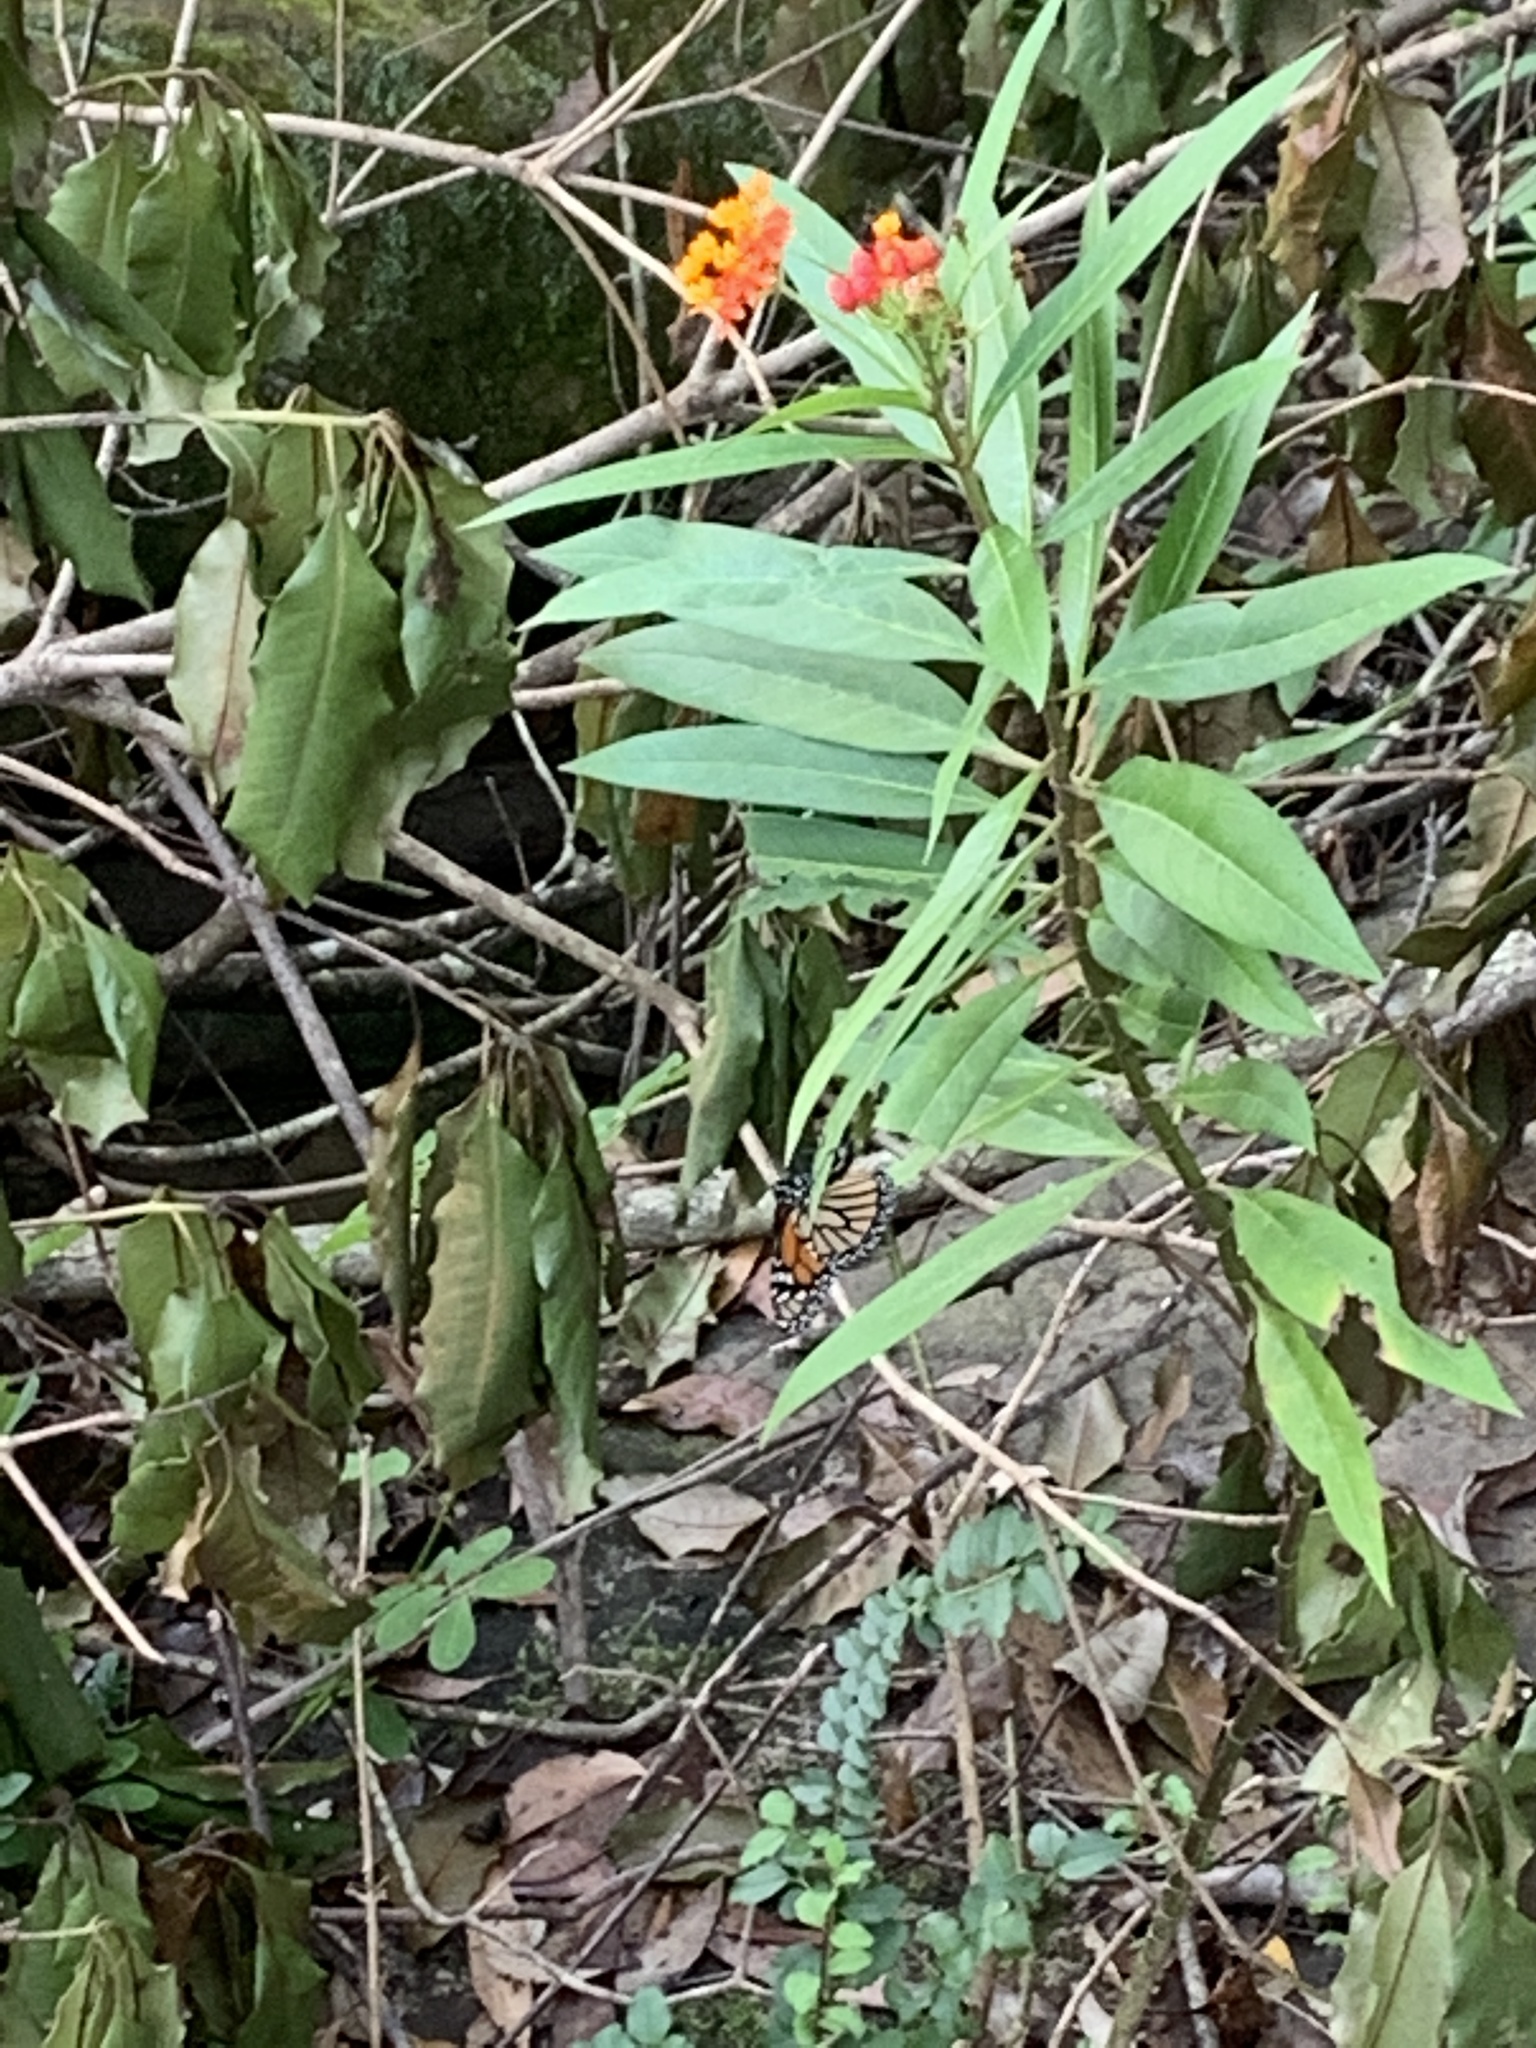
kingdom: Animalia
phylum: Arthropoda
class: Insecta
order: Lepidoptera
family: Nymphalidae
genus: Danaus
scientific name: Danaus plexippus
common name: Monarch
